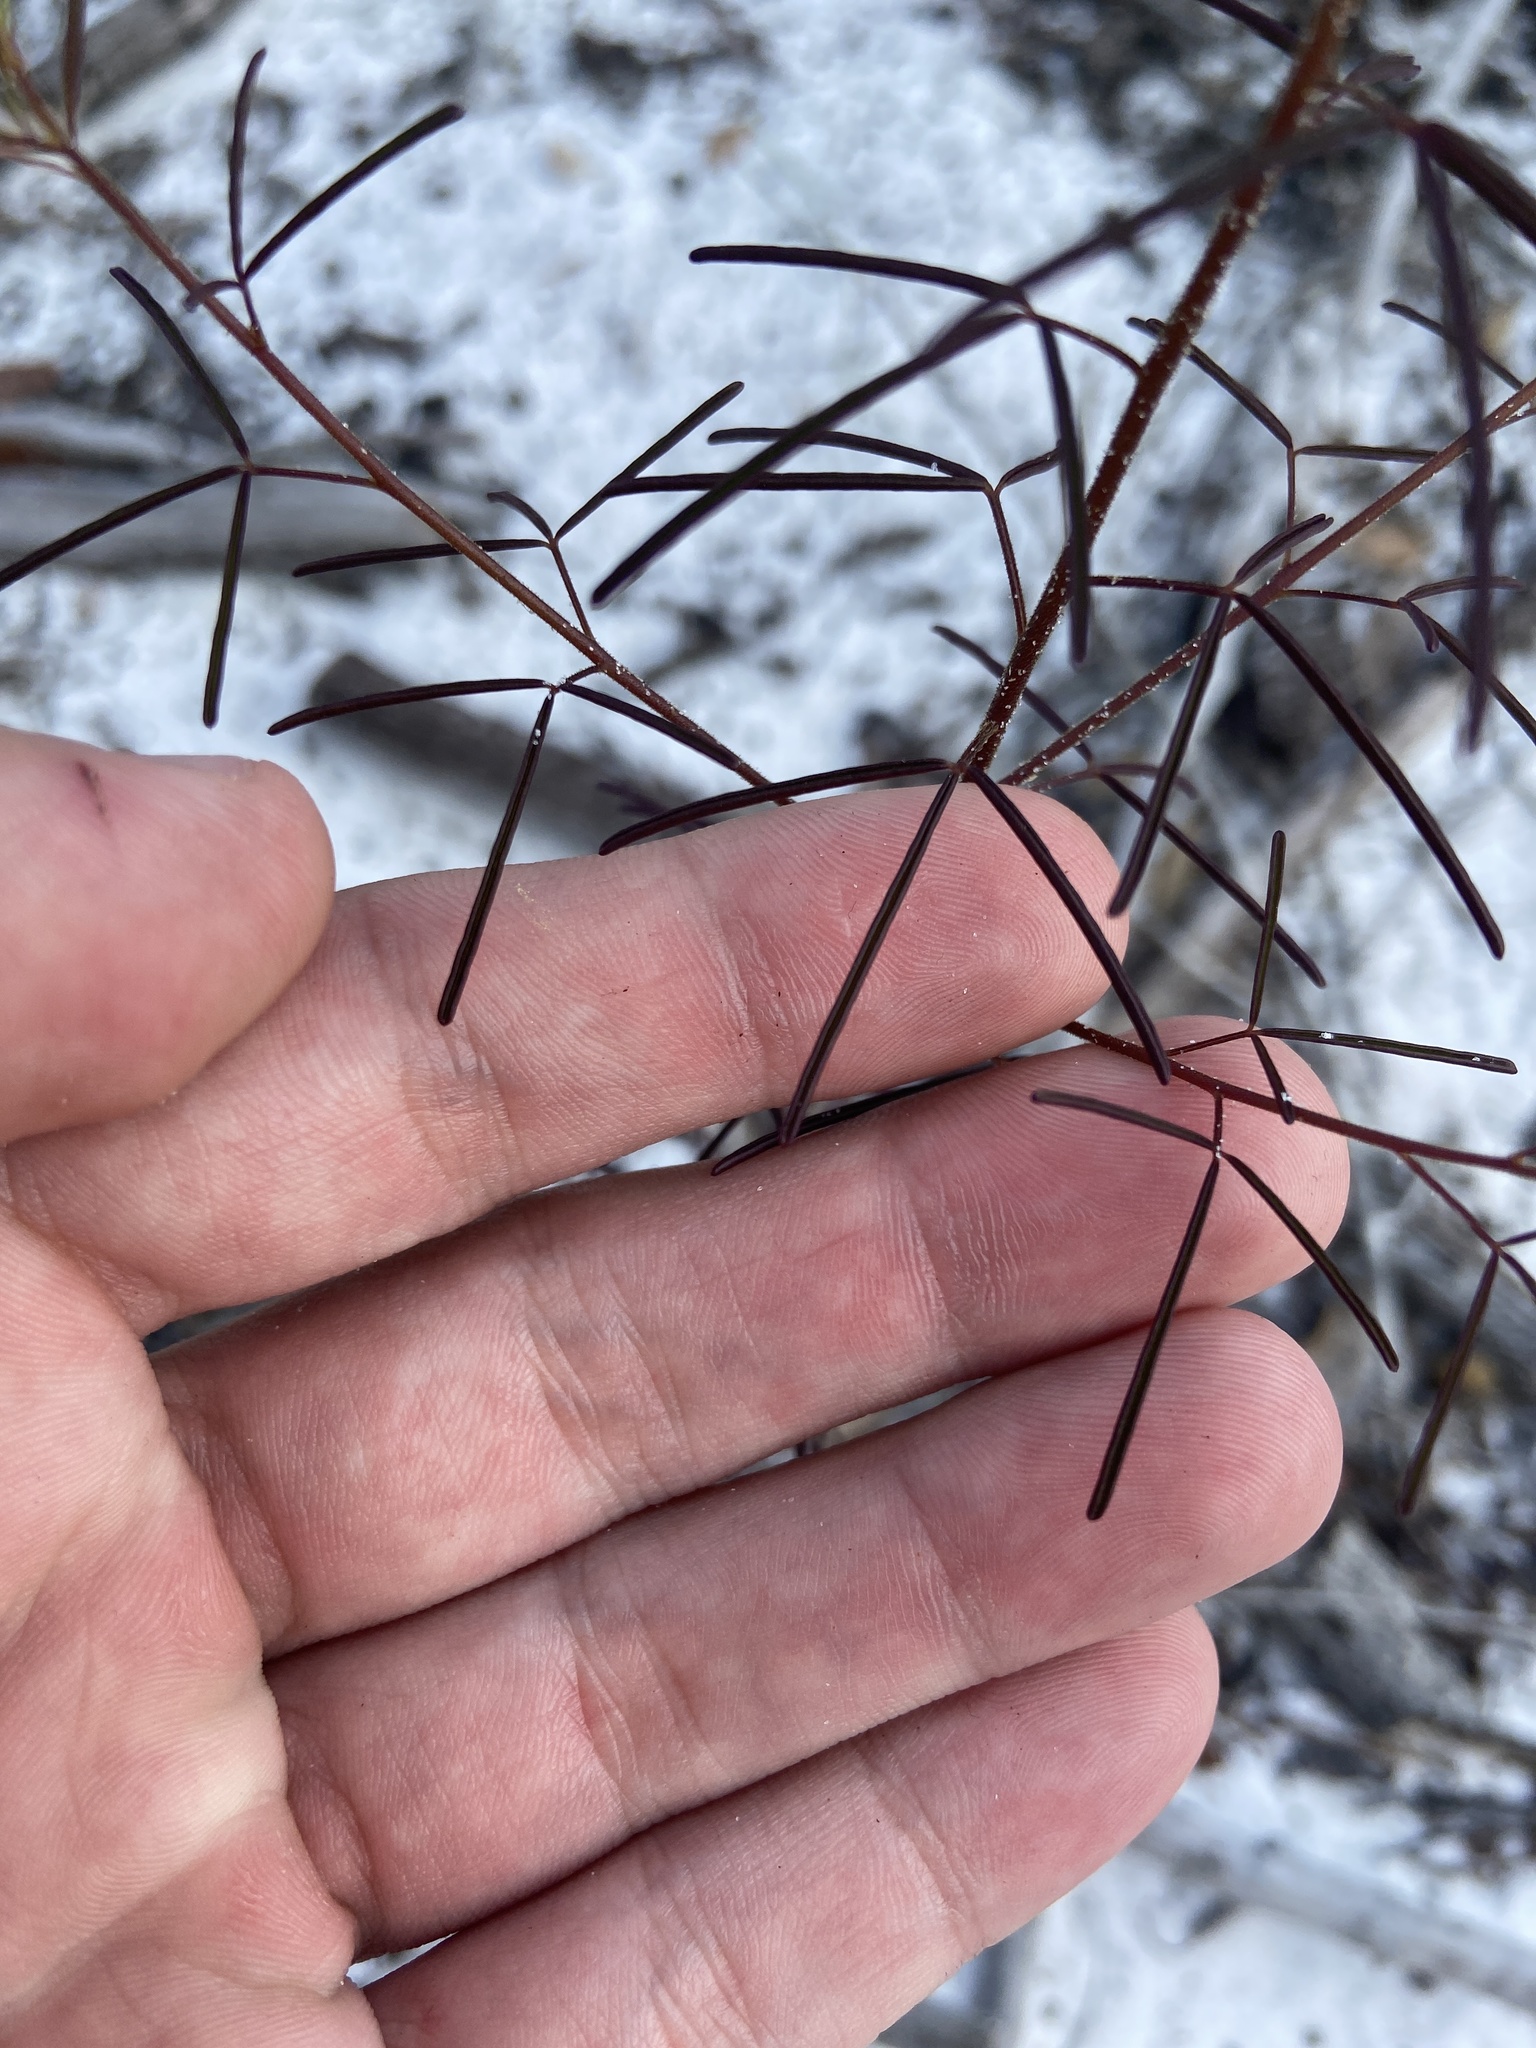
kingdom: Plantae
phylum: Tracheophyta
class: Magnoliopsida
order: Brassicales
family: Cleomaceae
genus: Polanisia
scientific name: Polanisia tenuifolia
